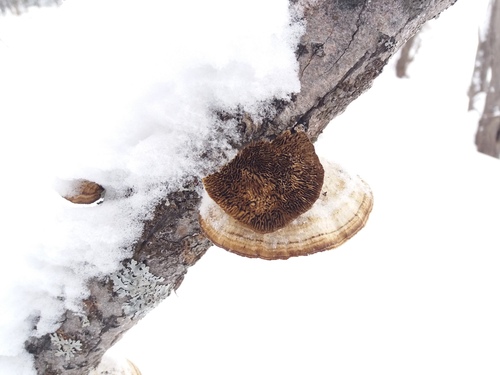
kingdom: Fungi
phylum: Basidiomycota
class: Agaricomycetes
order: Polyporales
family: Polyporaceae
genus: Daedaleopsis
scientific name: Daedaleopsis confragosa
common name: Blushing bracket
